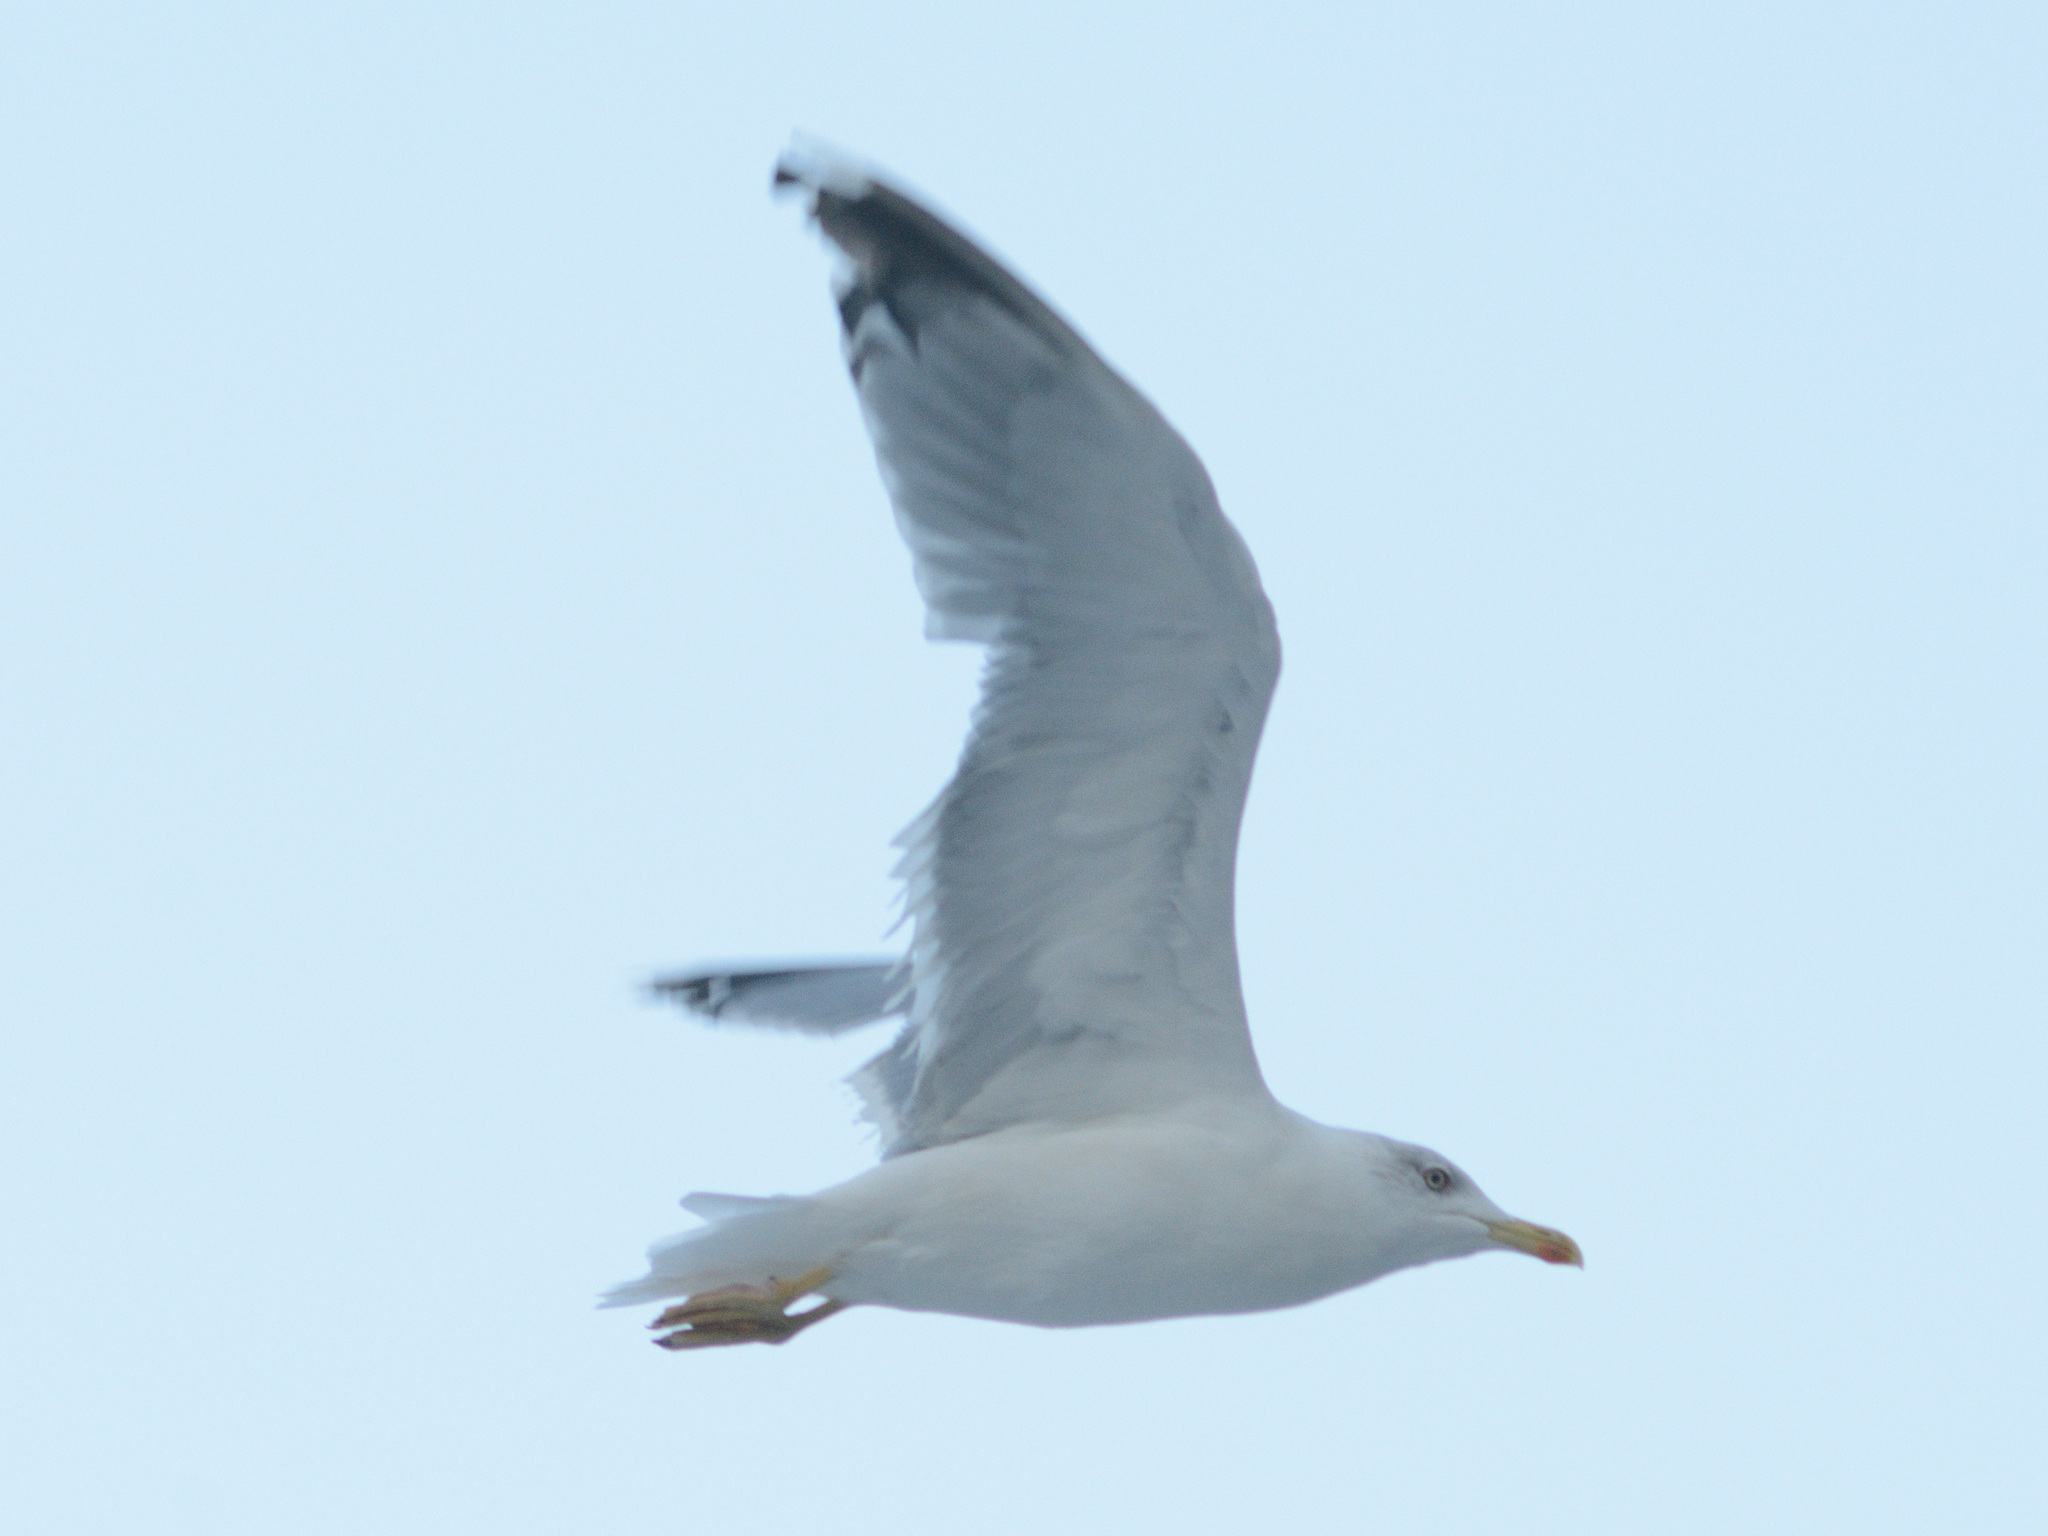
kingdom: Animalia
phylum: Chordata
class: Aves
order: Charadriiformes
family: Laridae
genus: Larus
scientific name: Larus michahellis
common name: Yellow-legged gull
